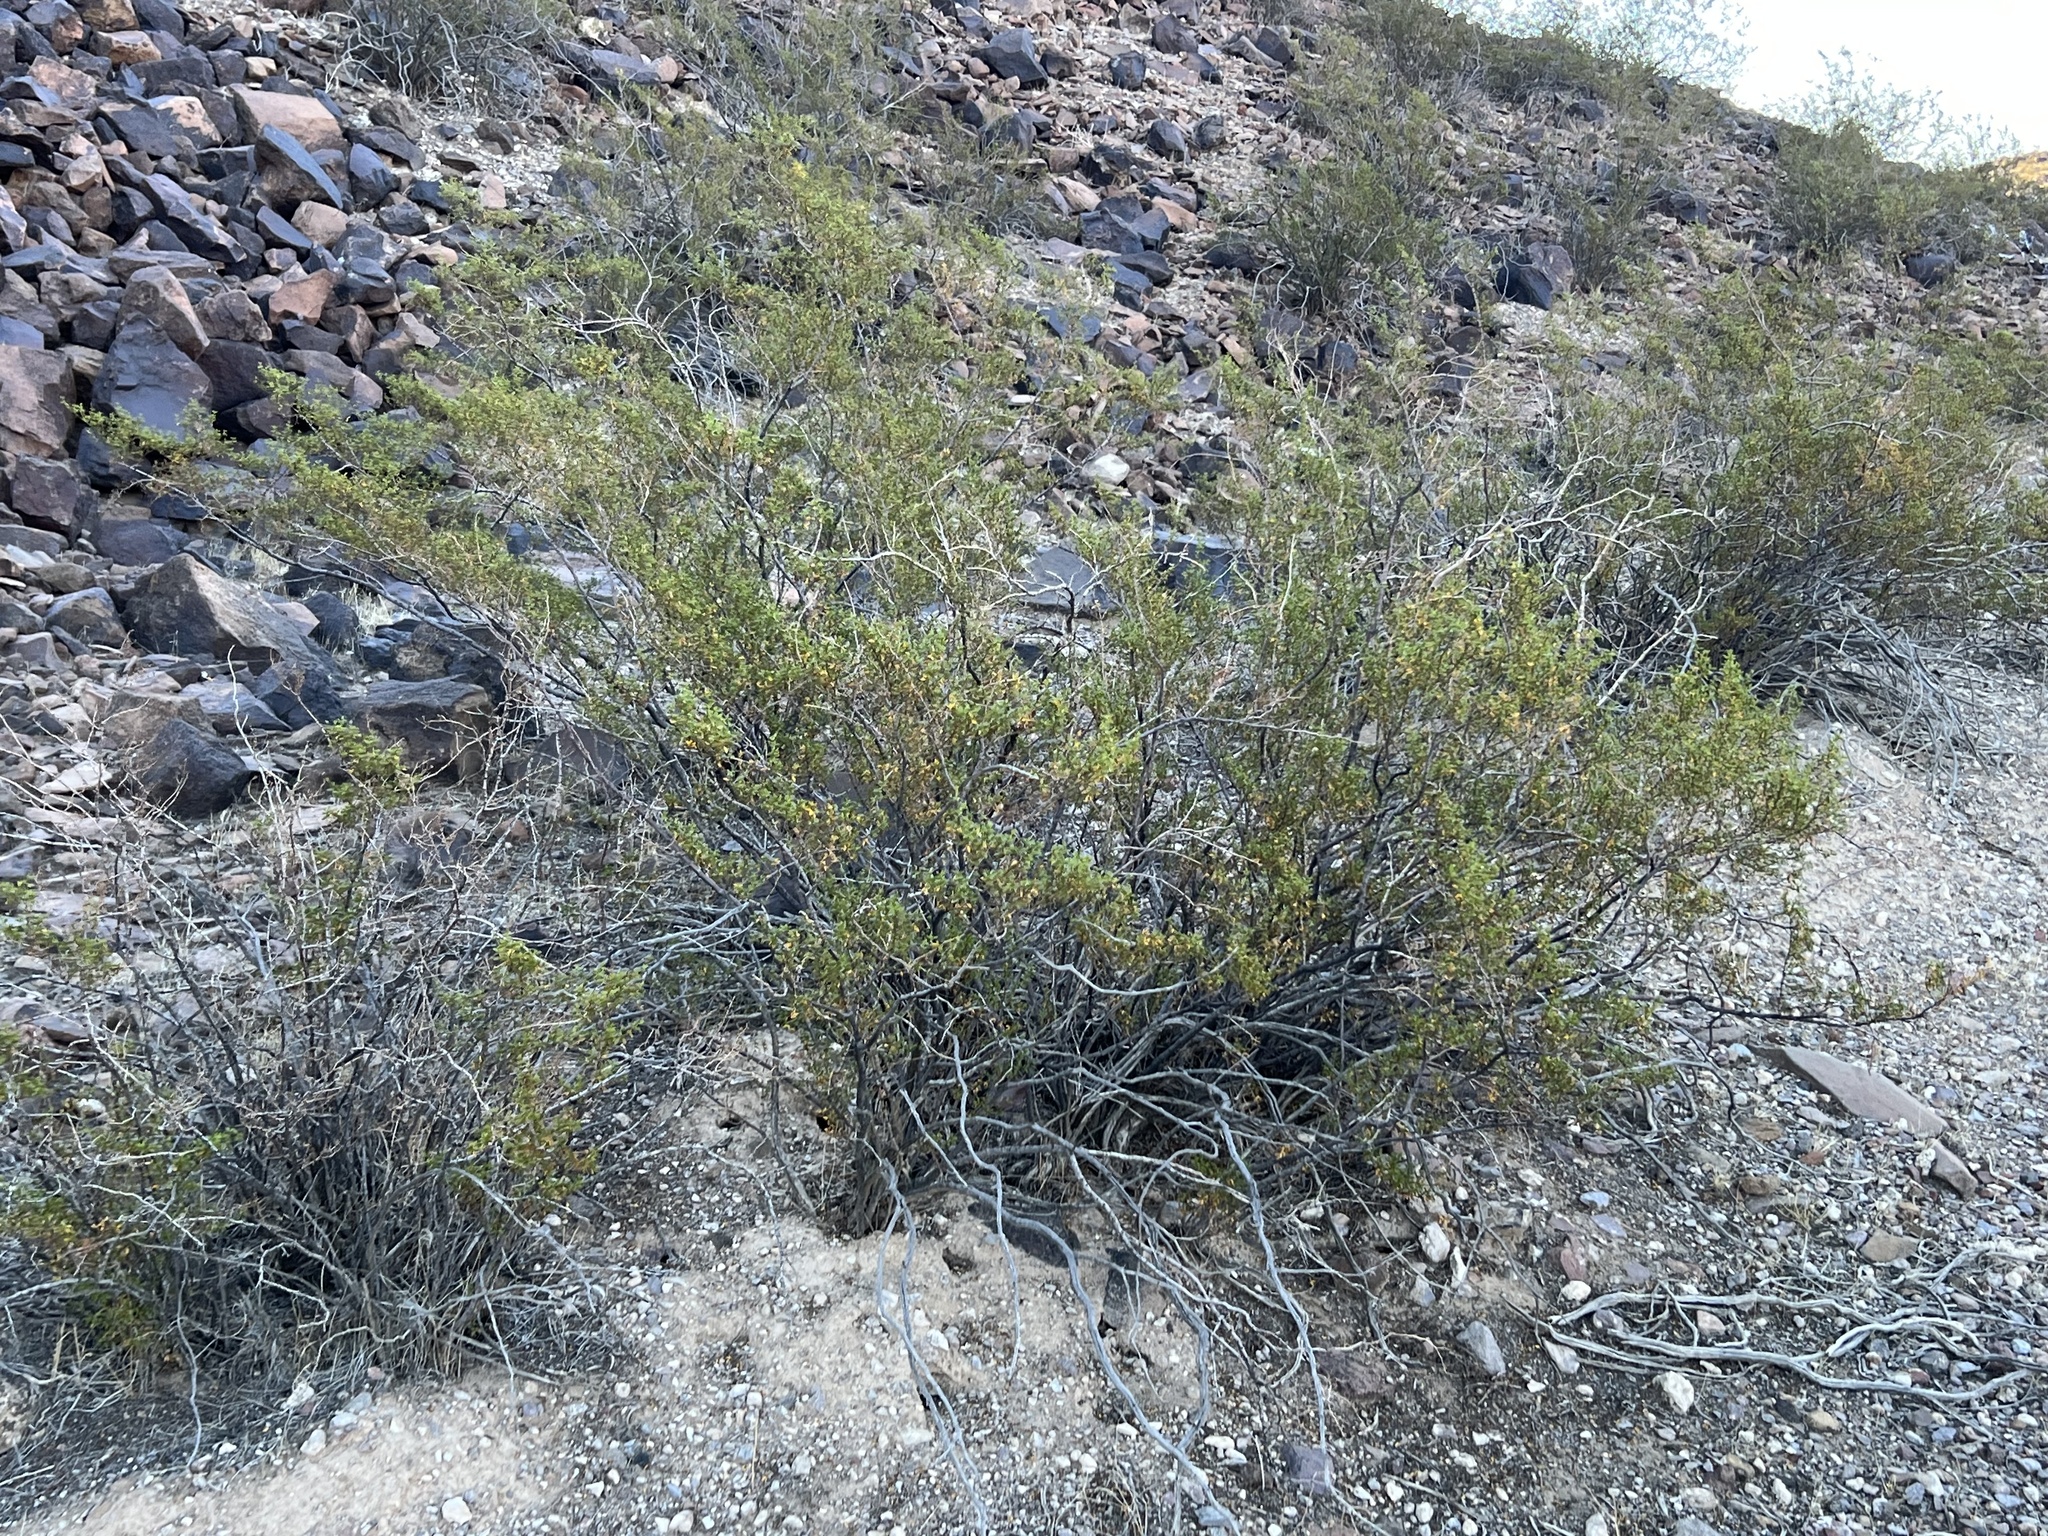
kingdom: Plantae
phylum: Tracheophyta
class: Magnoliopsida
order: Zygophyllales
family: Zygophyllaceae
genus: Larrea
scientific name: Larrea tridentata
